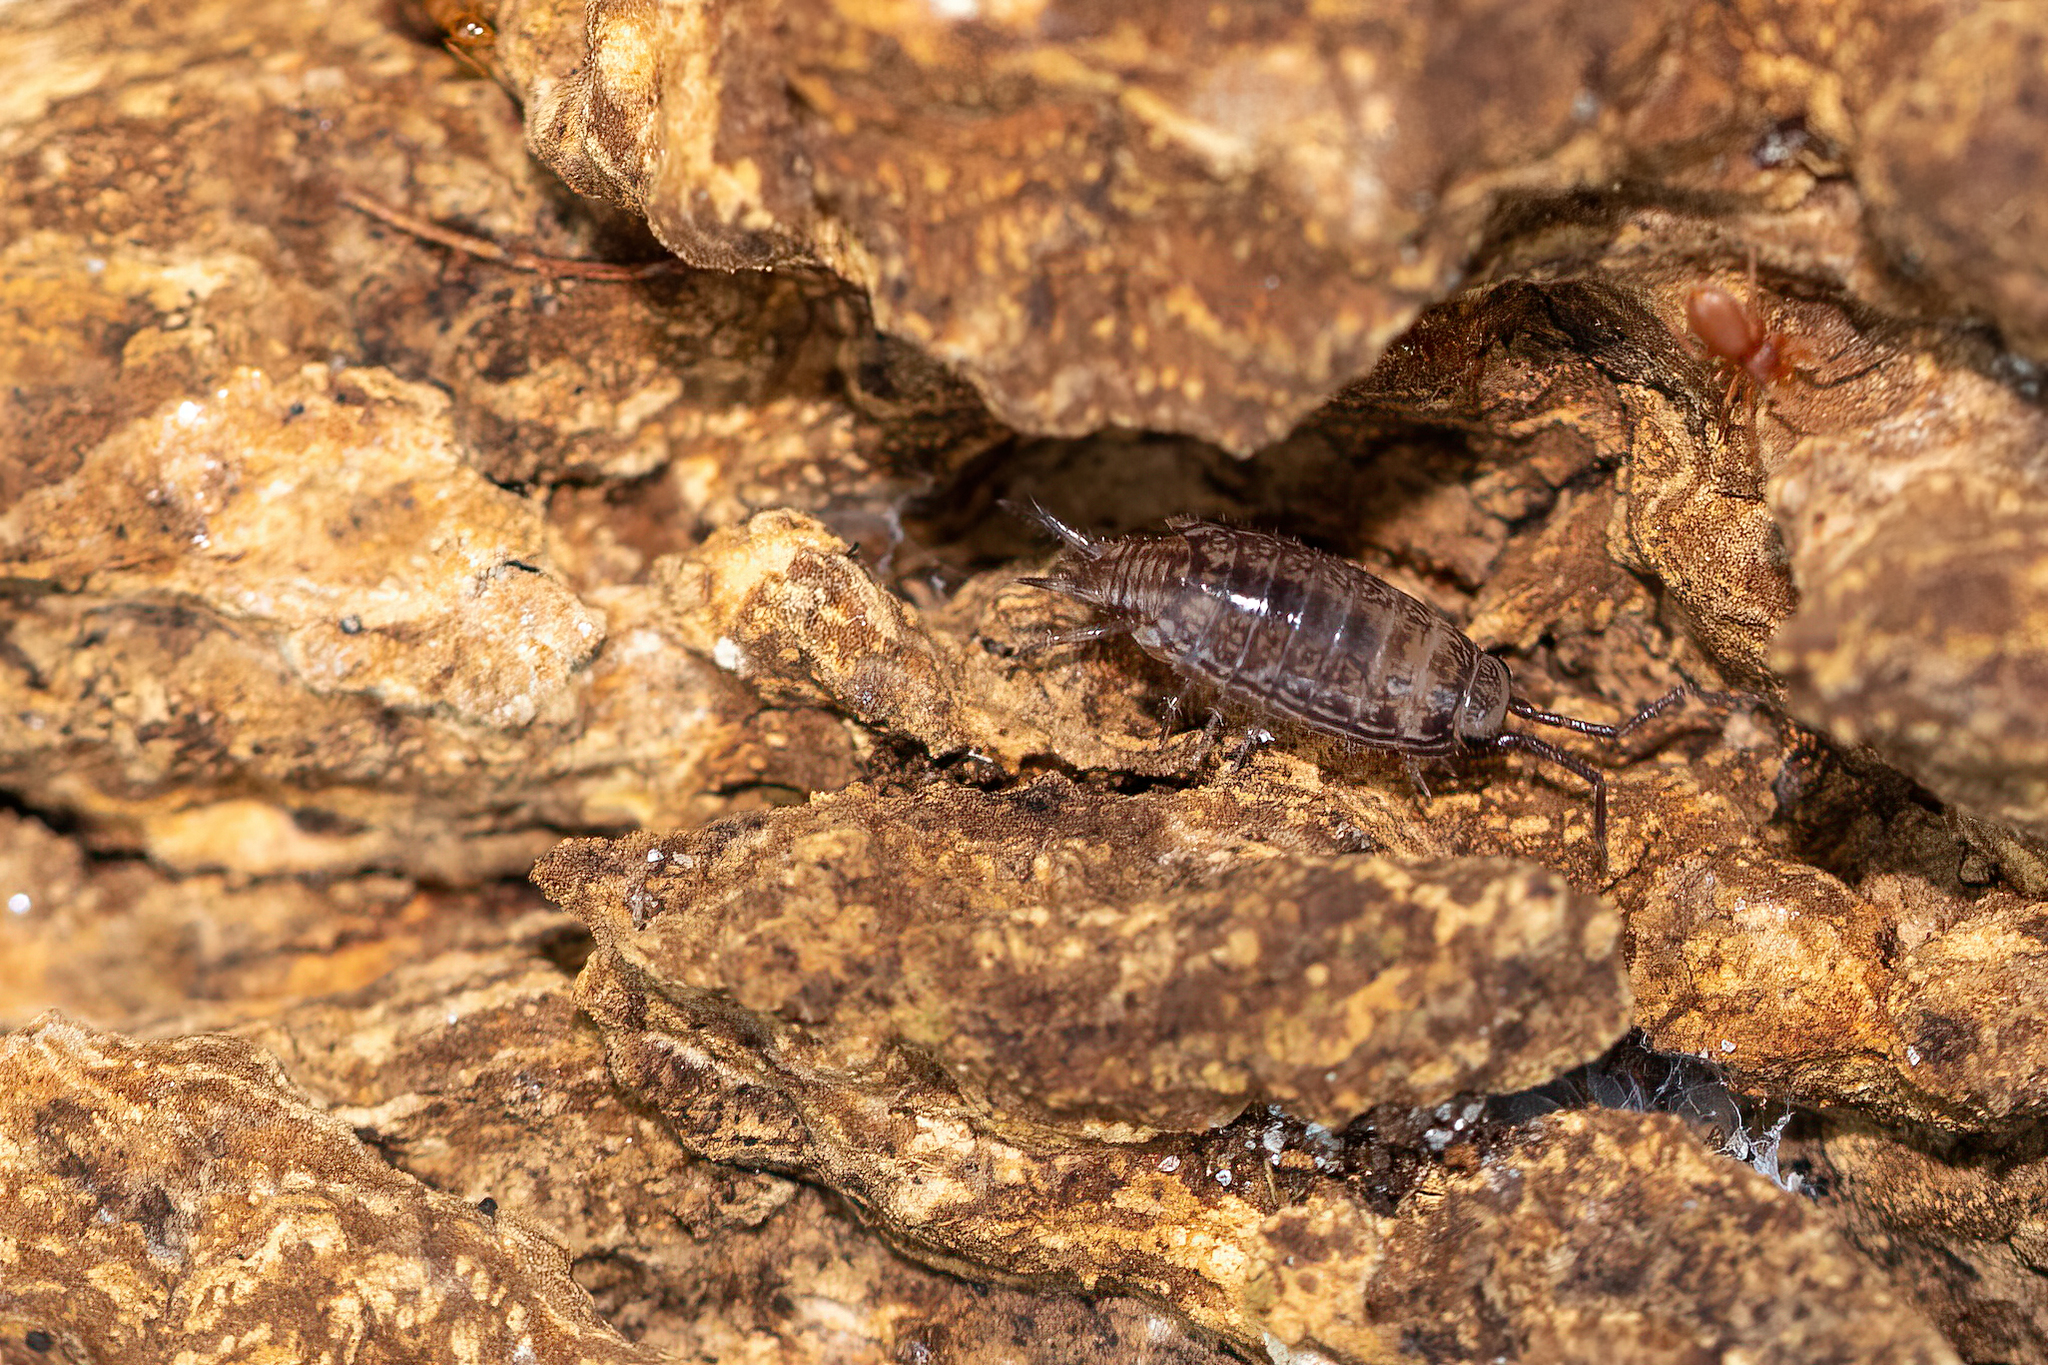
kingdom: Animalia
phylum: Arthropoda
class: Malacostraca
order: Isopoda
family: Philosciidae
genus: Atlantoscia
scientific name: Atlantoscia floridana
